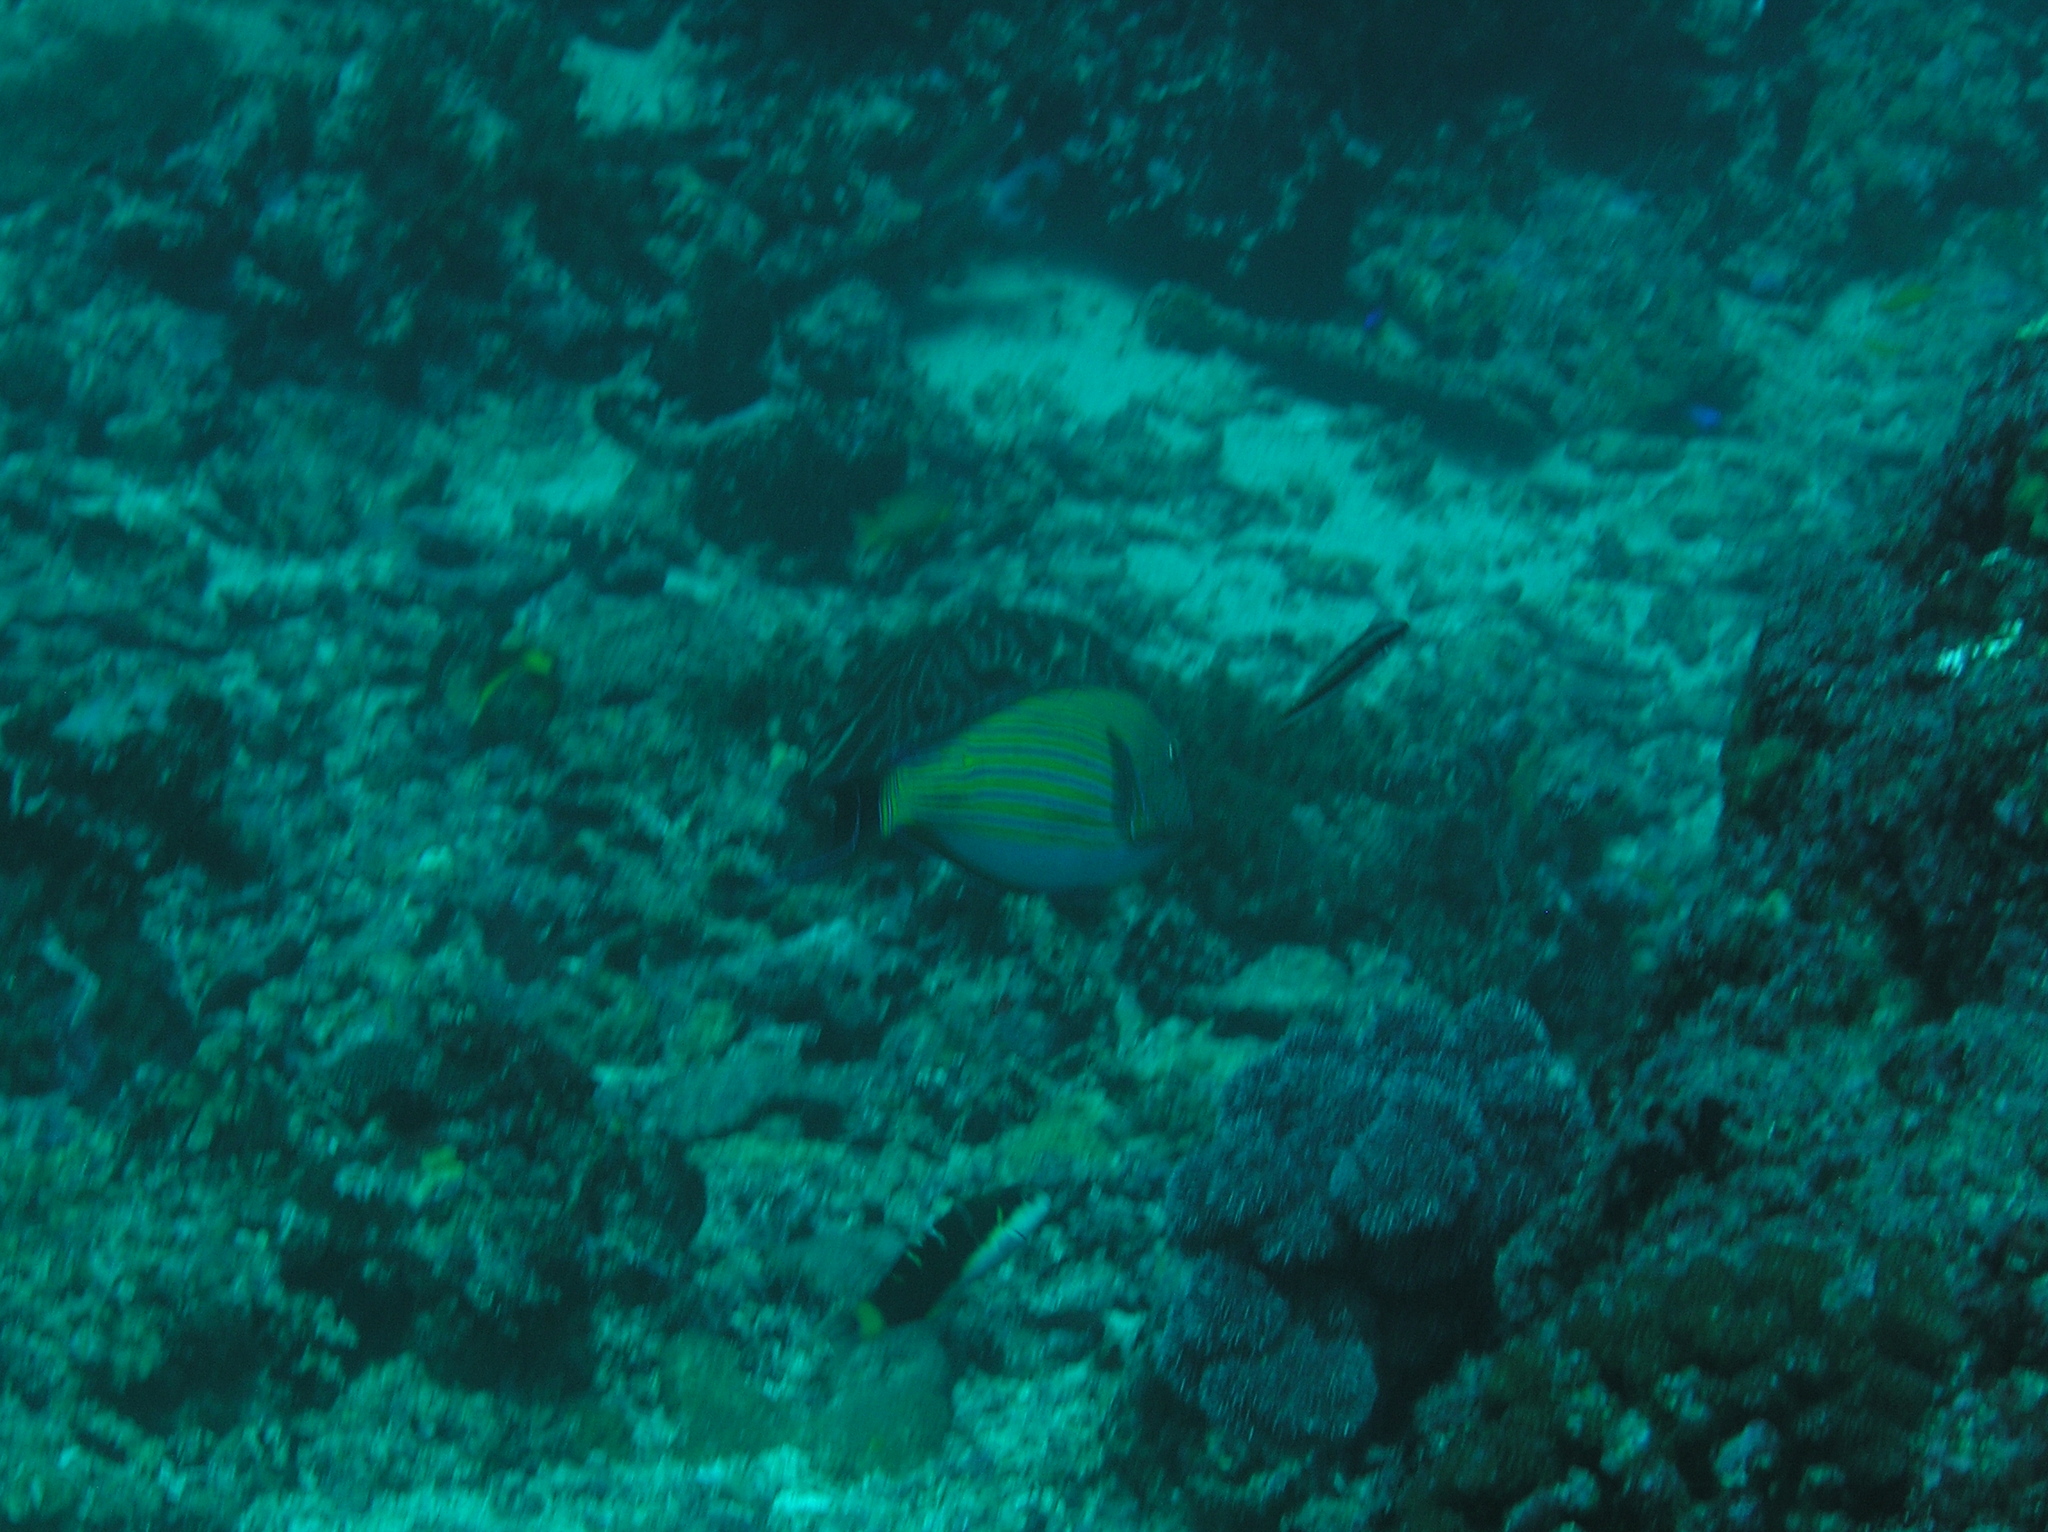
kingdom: Animalia
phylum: Chordata
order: Perciformes
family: Acanthuridae
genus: Acanthurus
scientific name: Acanthurus lineatus
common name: Striped surgeonfish
